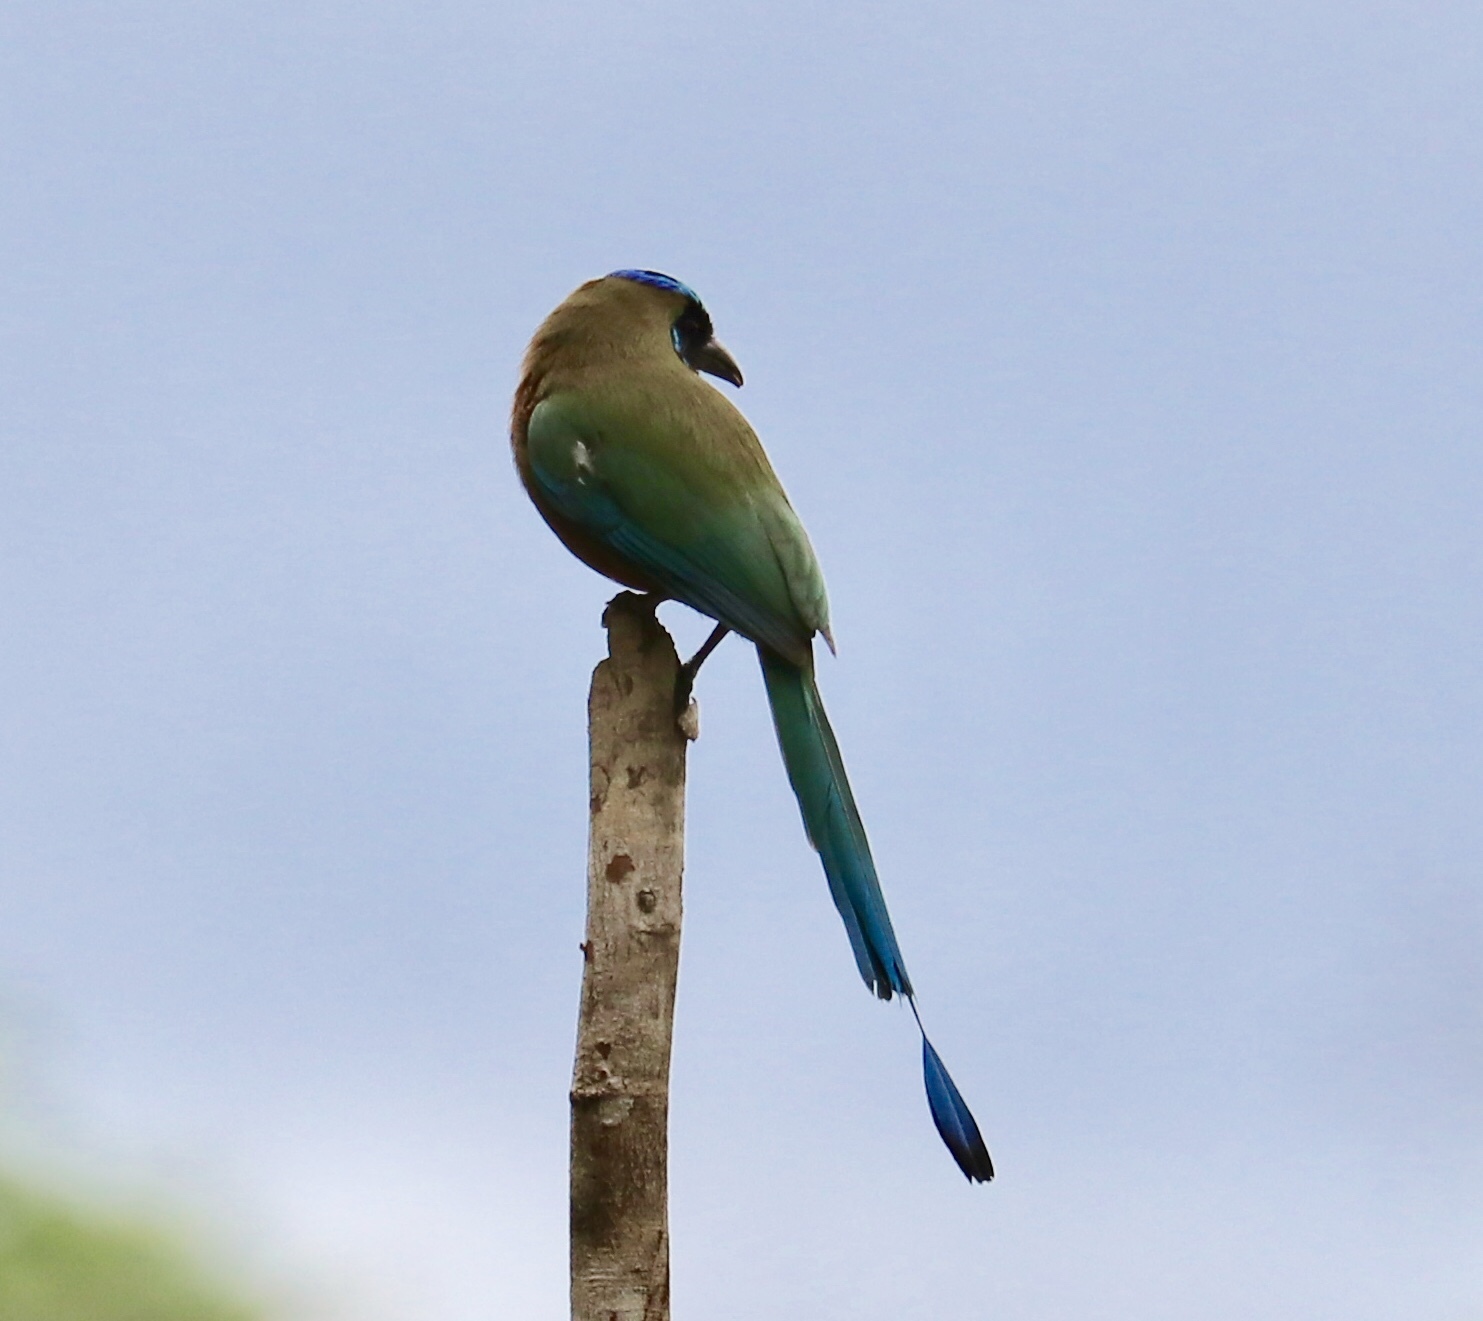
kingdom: Animalia
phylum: Chordata
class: Aves
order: Coraciiformes
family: Momotidae
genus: Momotus
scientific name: Momotus subrufescens
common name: Whooping motmot
